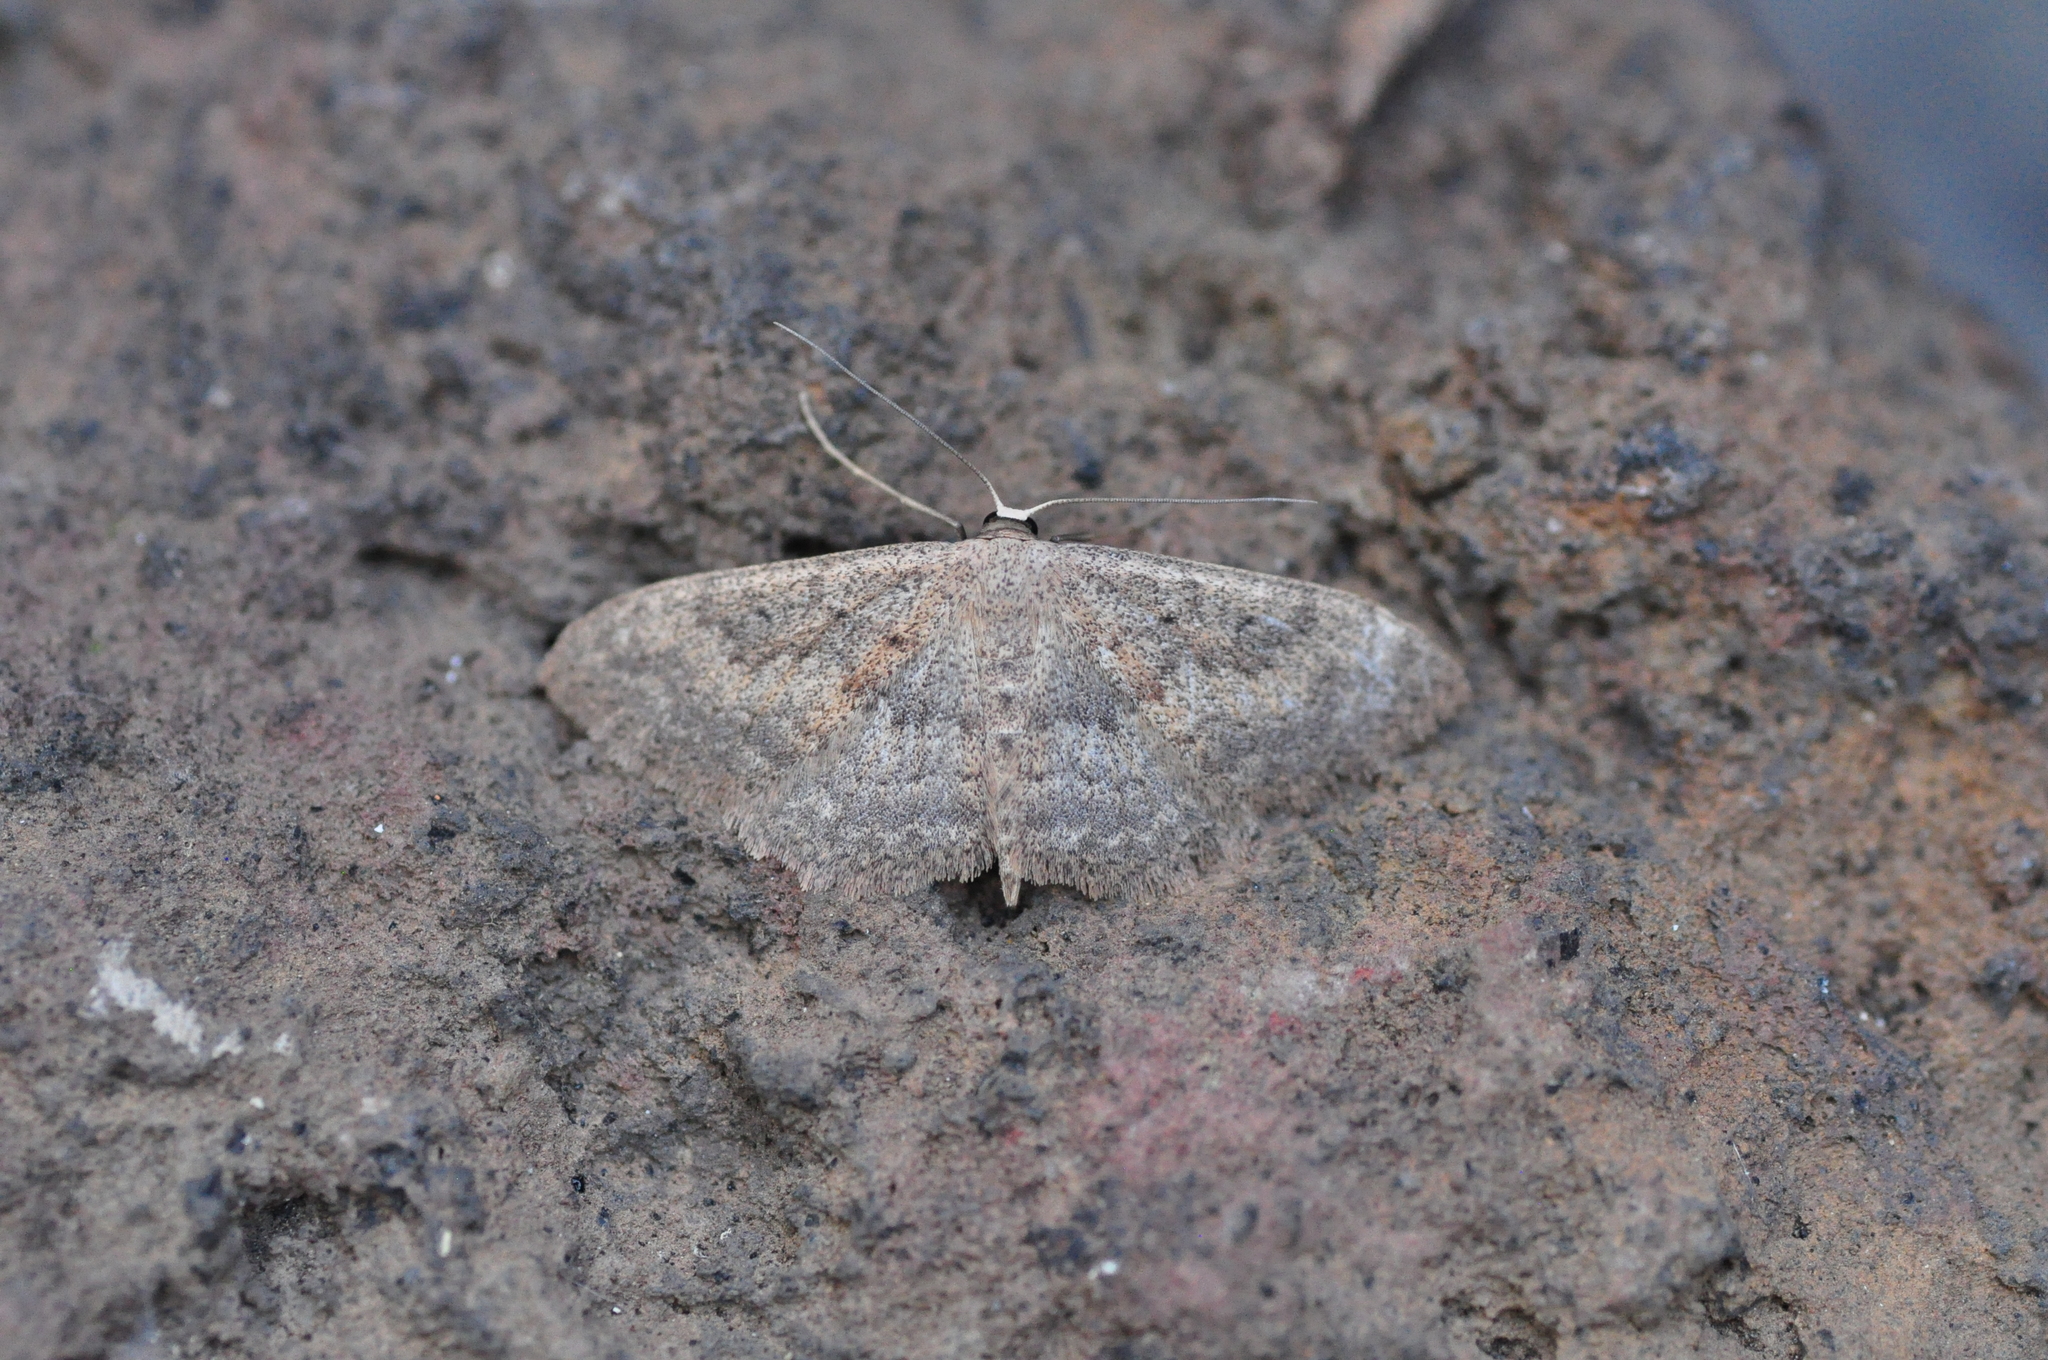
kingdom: Animalia
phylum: Arthropoda
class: Insecta
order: Lepidoptera
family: Geometridae
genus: Scopula
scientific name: Scopula guancharia
